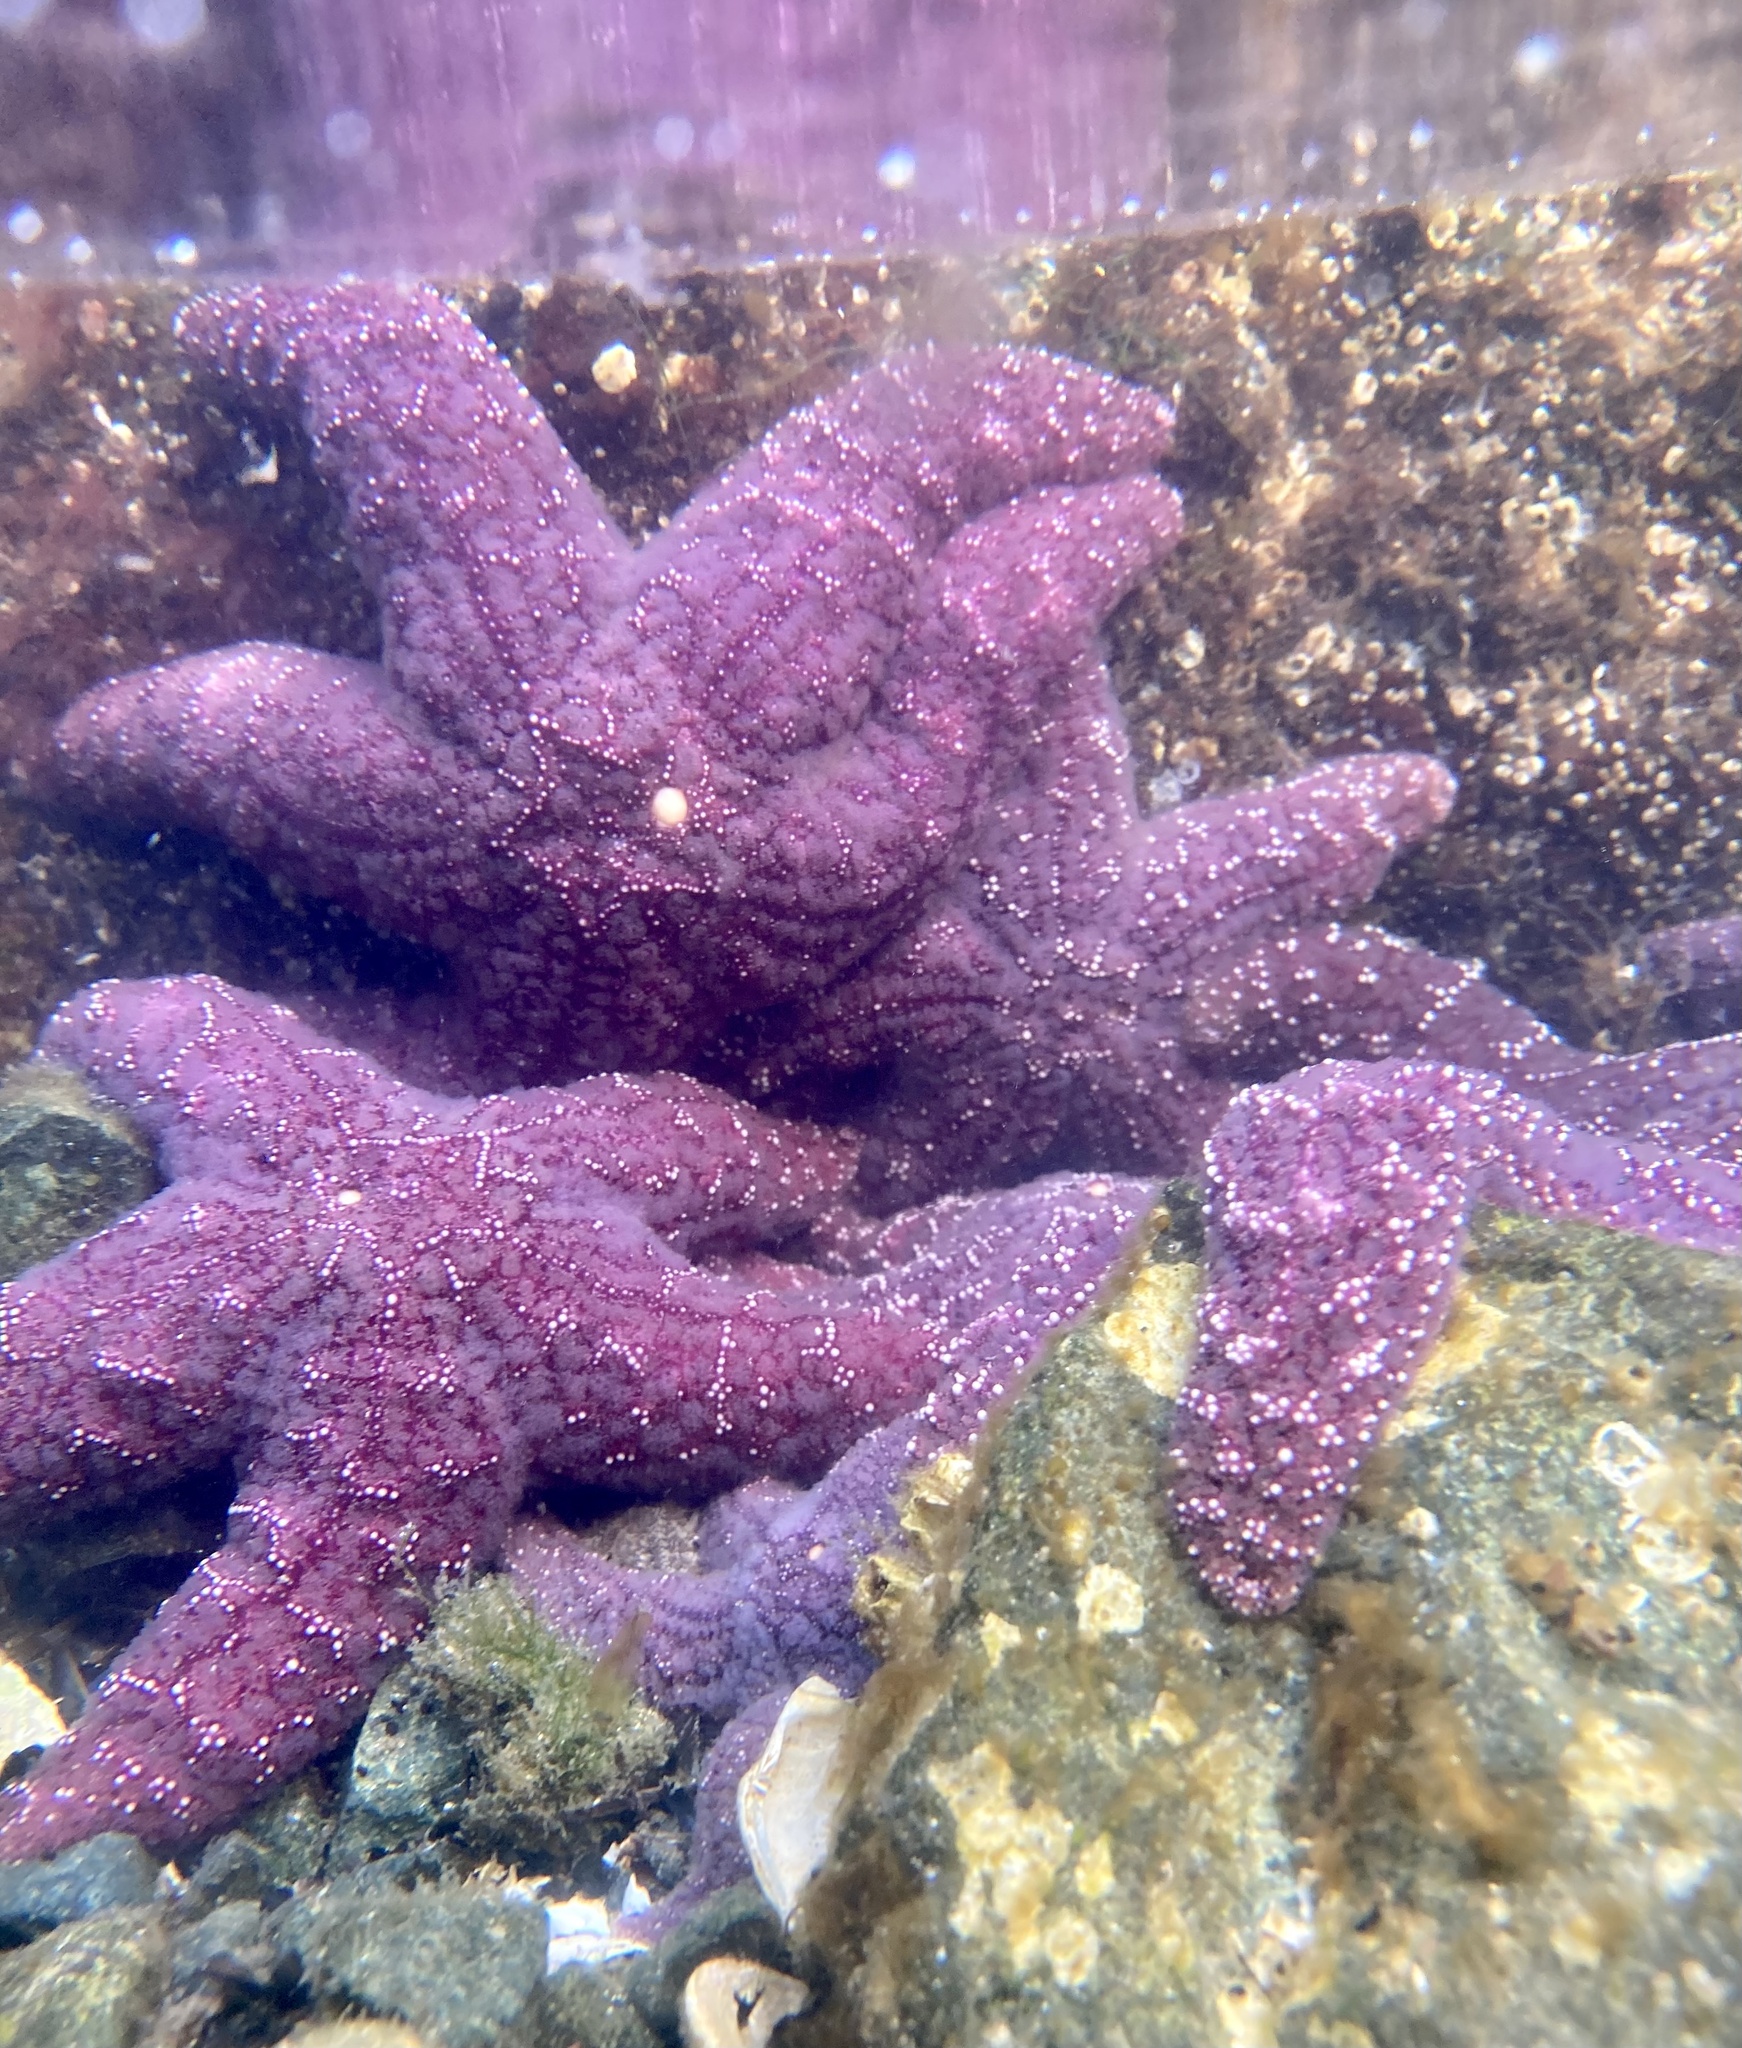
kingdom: Animalia
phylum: Echinodermata
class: Asteroidea
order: Forcipulatida
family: Asteriidae
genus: Pisaster
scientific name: Pisaster ochraceus
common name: Ochre stars
